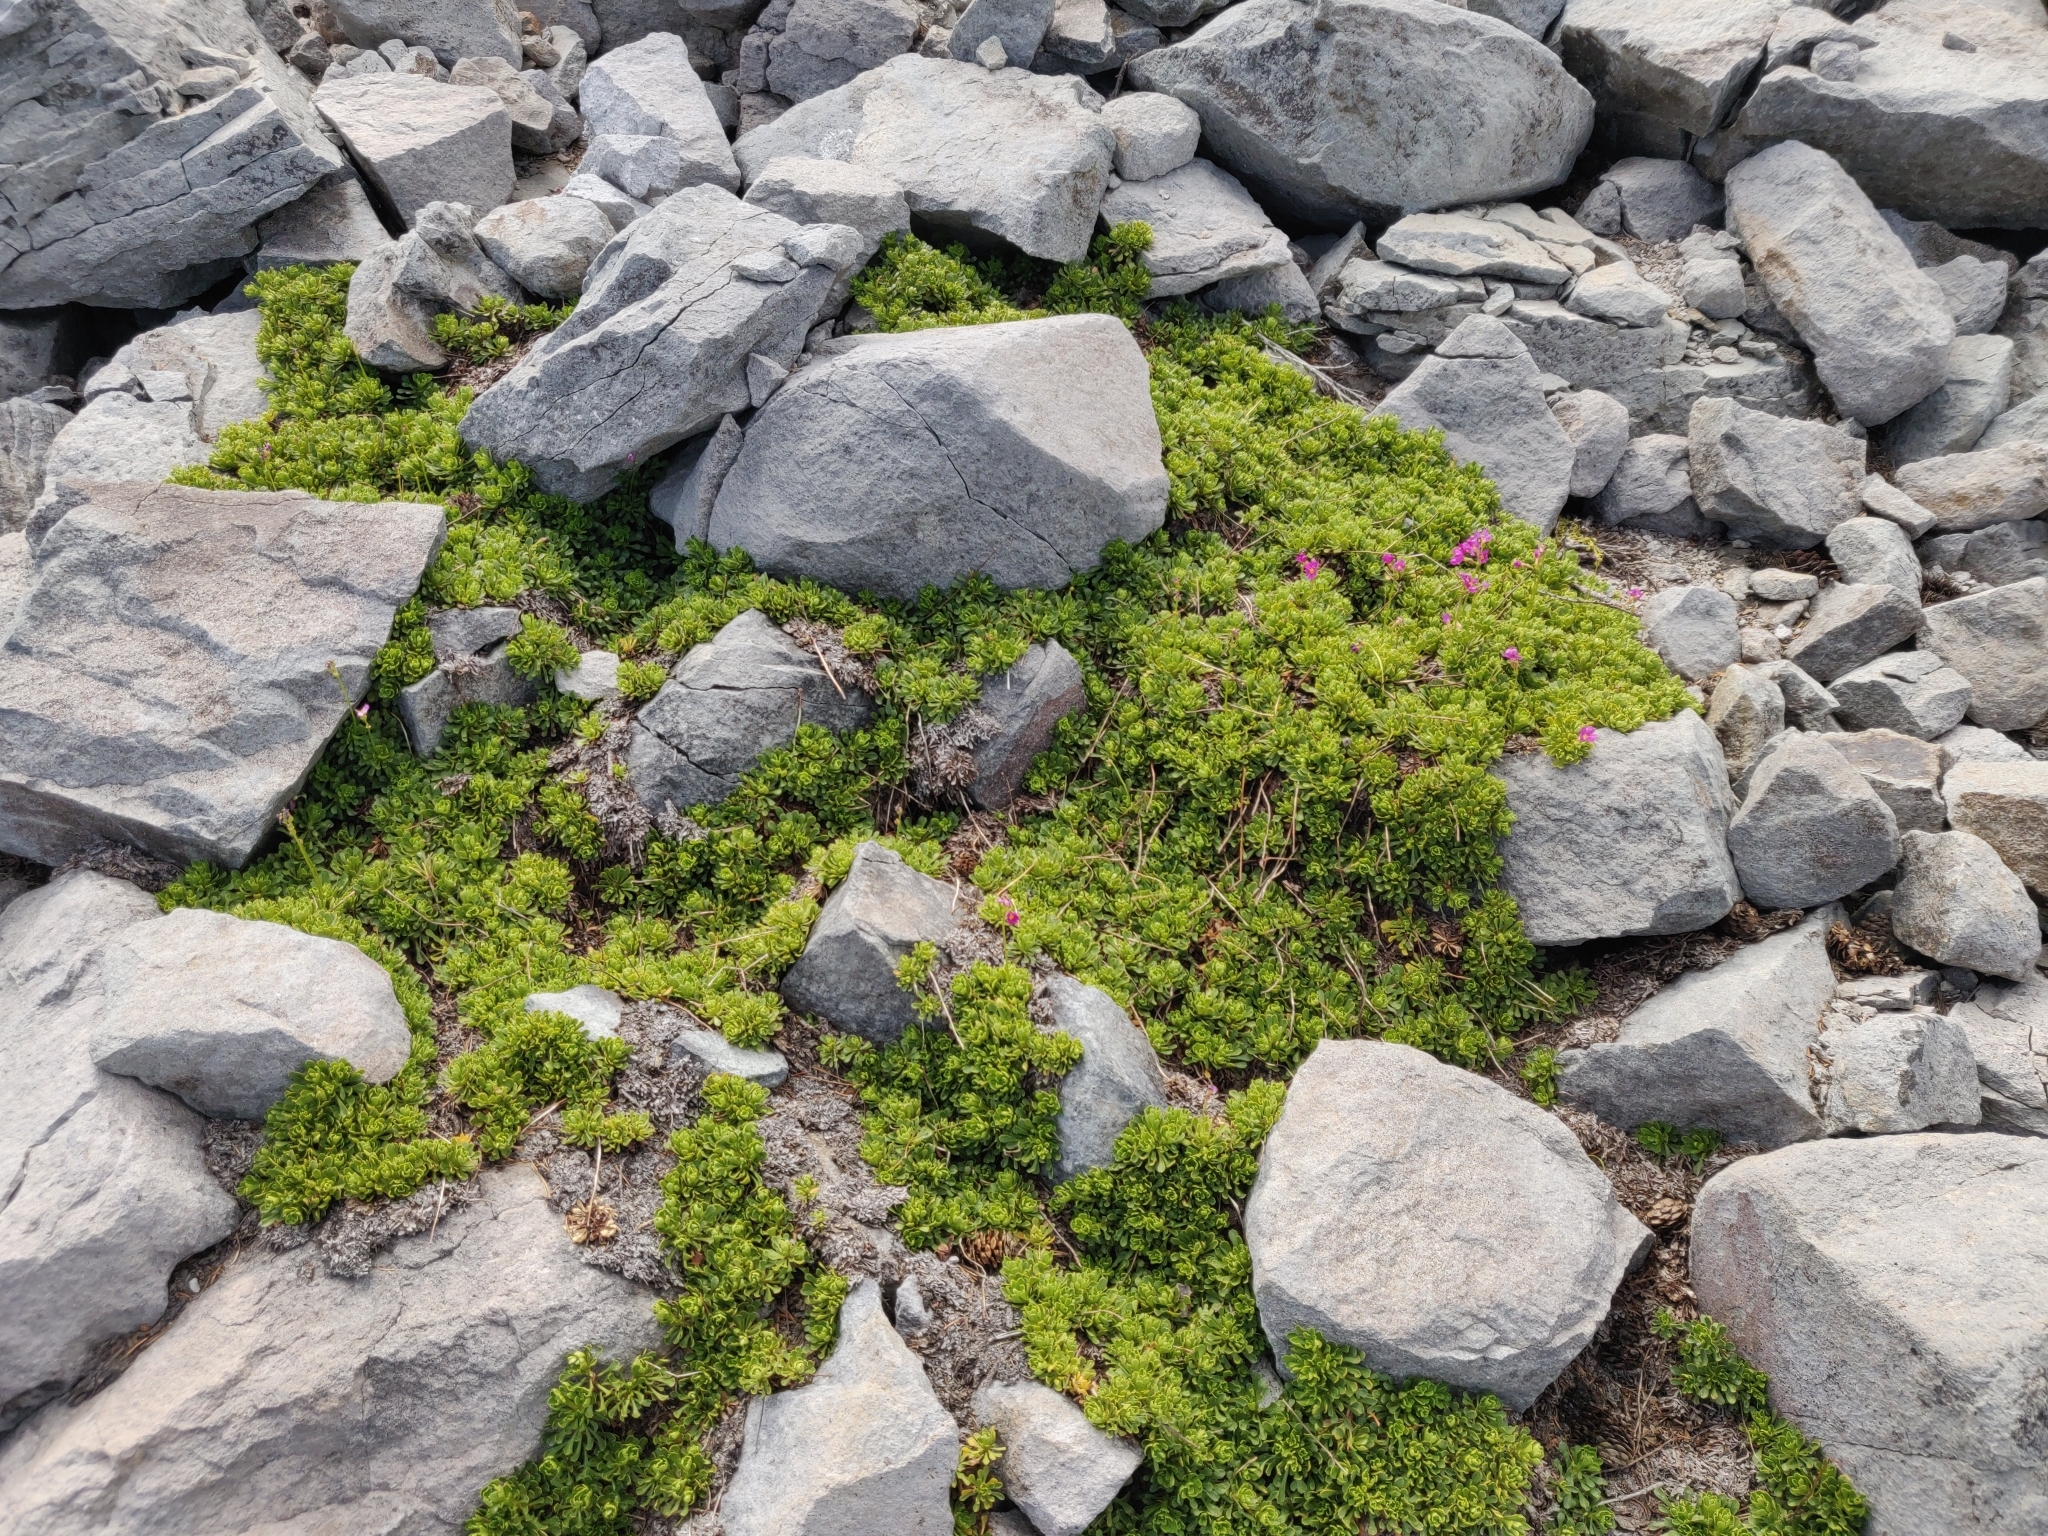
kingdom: Plantae
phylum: Tracheophyta
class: Magnoliopsida
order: Ericales
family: Primulaceae
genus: Primula
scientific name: Primula suffrutescens
